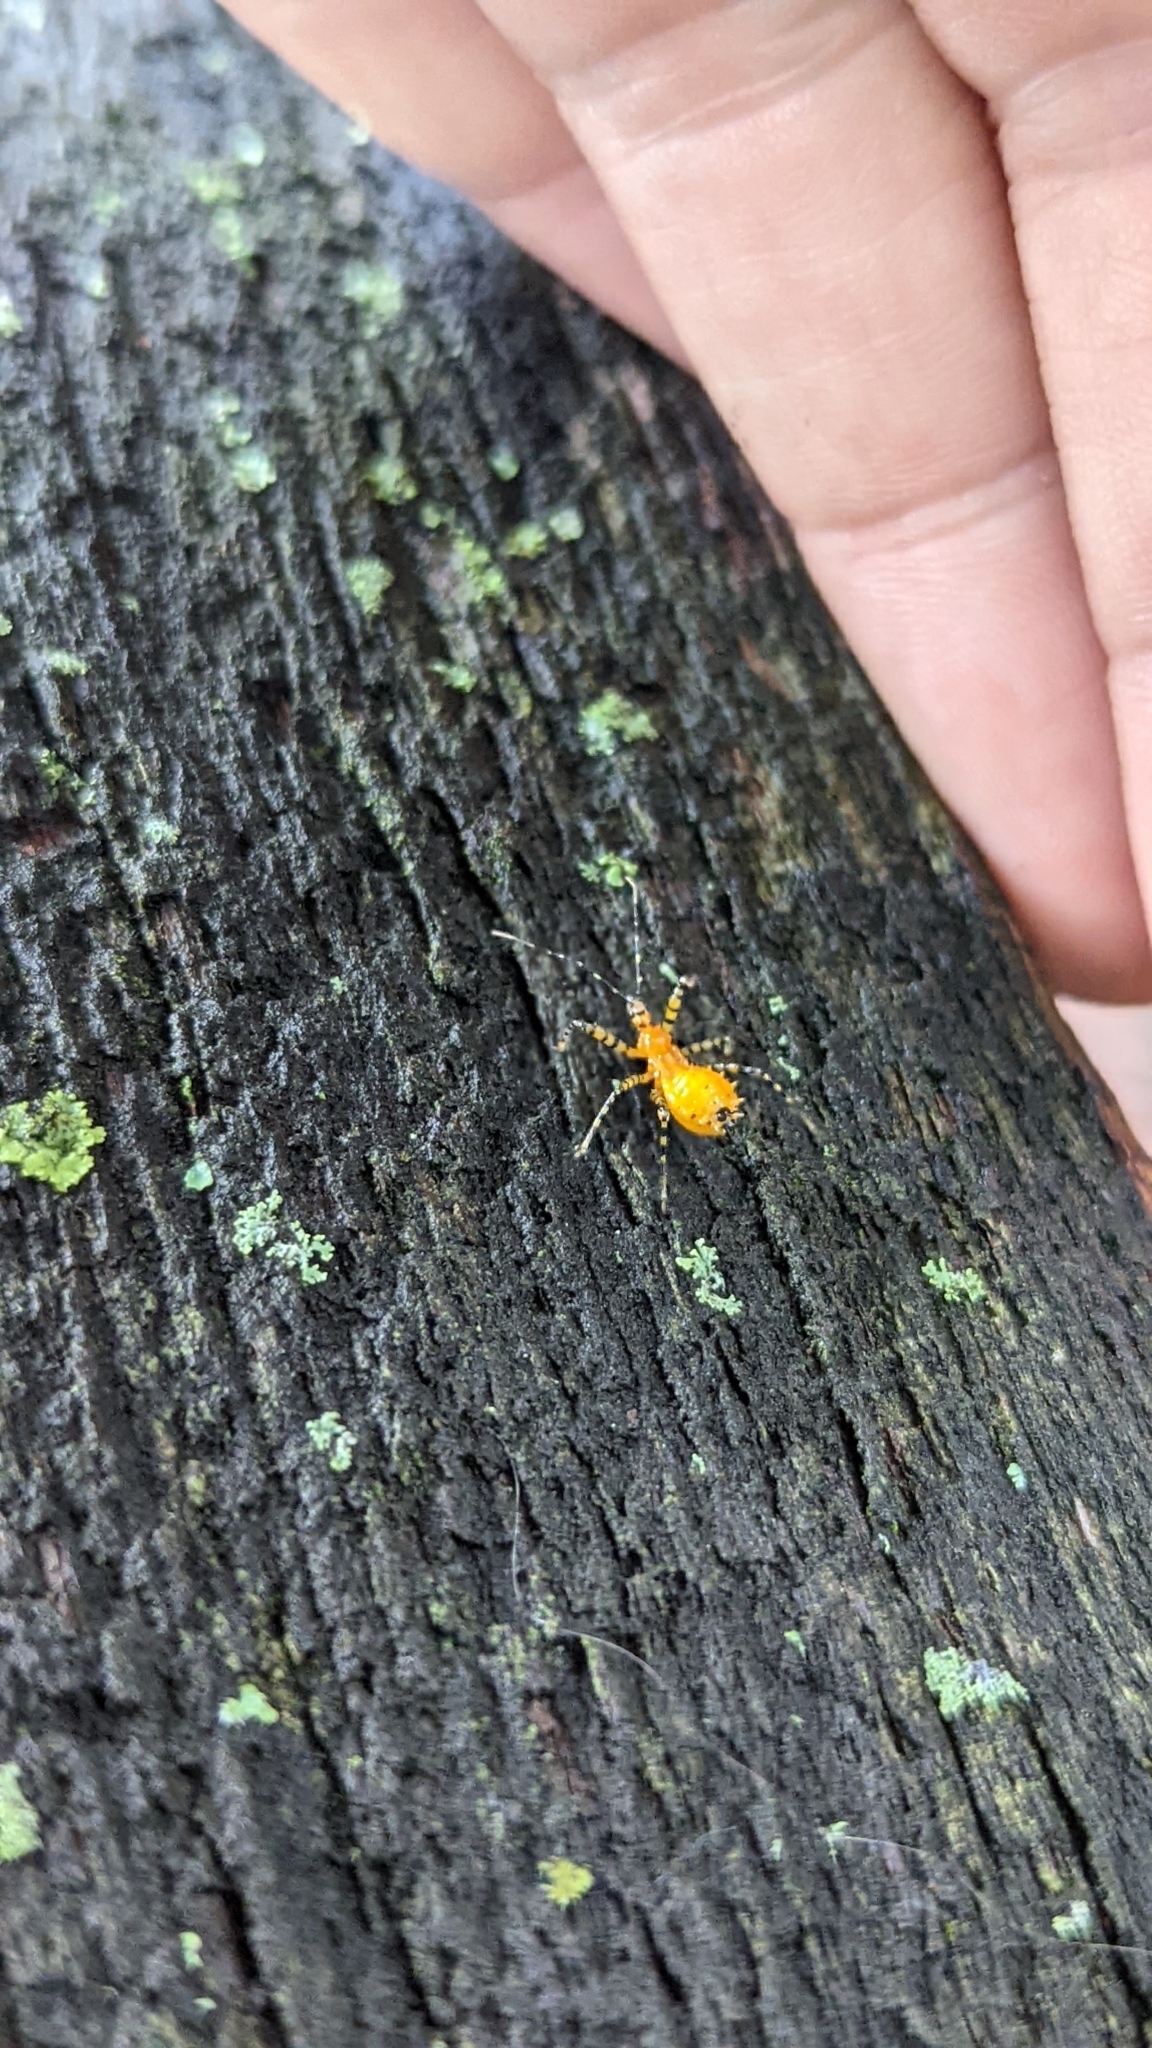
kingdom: Animalia
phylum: Arthropoda
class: Insecta
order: Hemiptera
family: Reduviidae
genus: Pselliopus
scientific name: Pselliopus barberi
